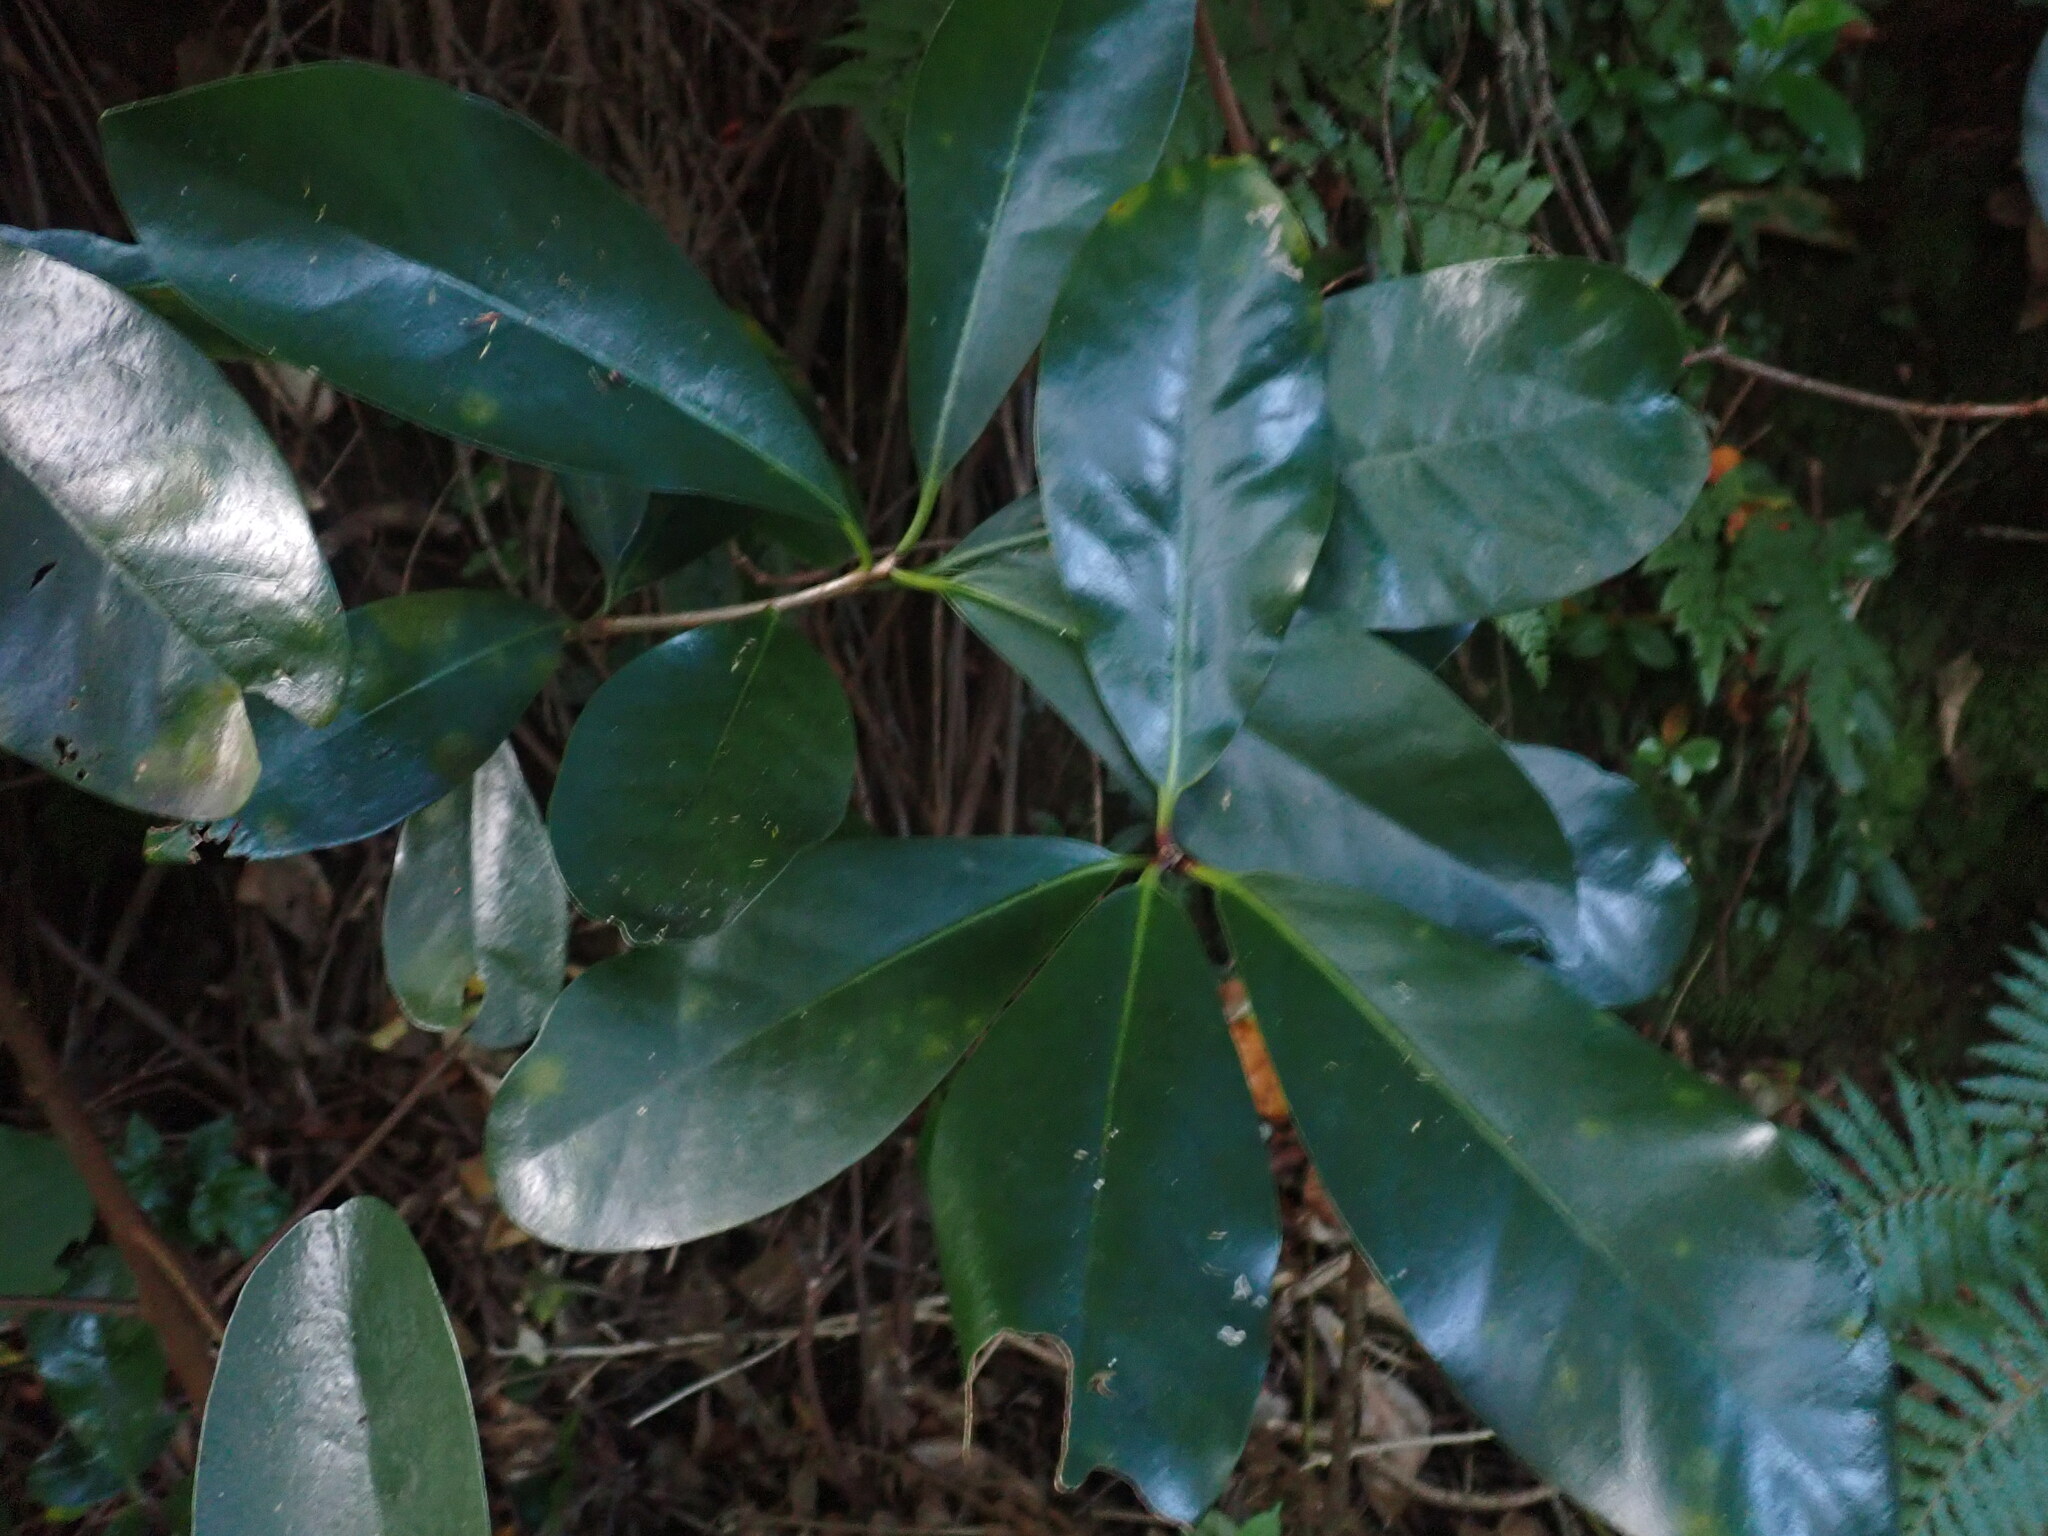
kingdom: Plantae
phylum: Tracheophyta
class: Magnoliopsida
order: Cucurbitales
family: Corynocarpaceae
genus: Corynocarpus
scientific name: Corynocarpus laevigatus
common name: New zealand laurel
